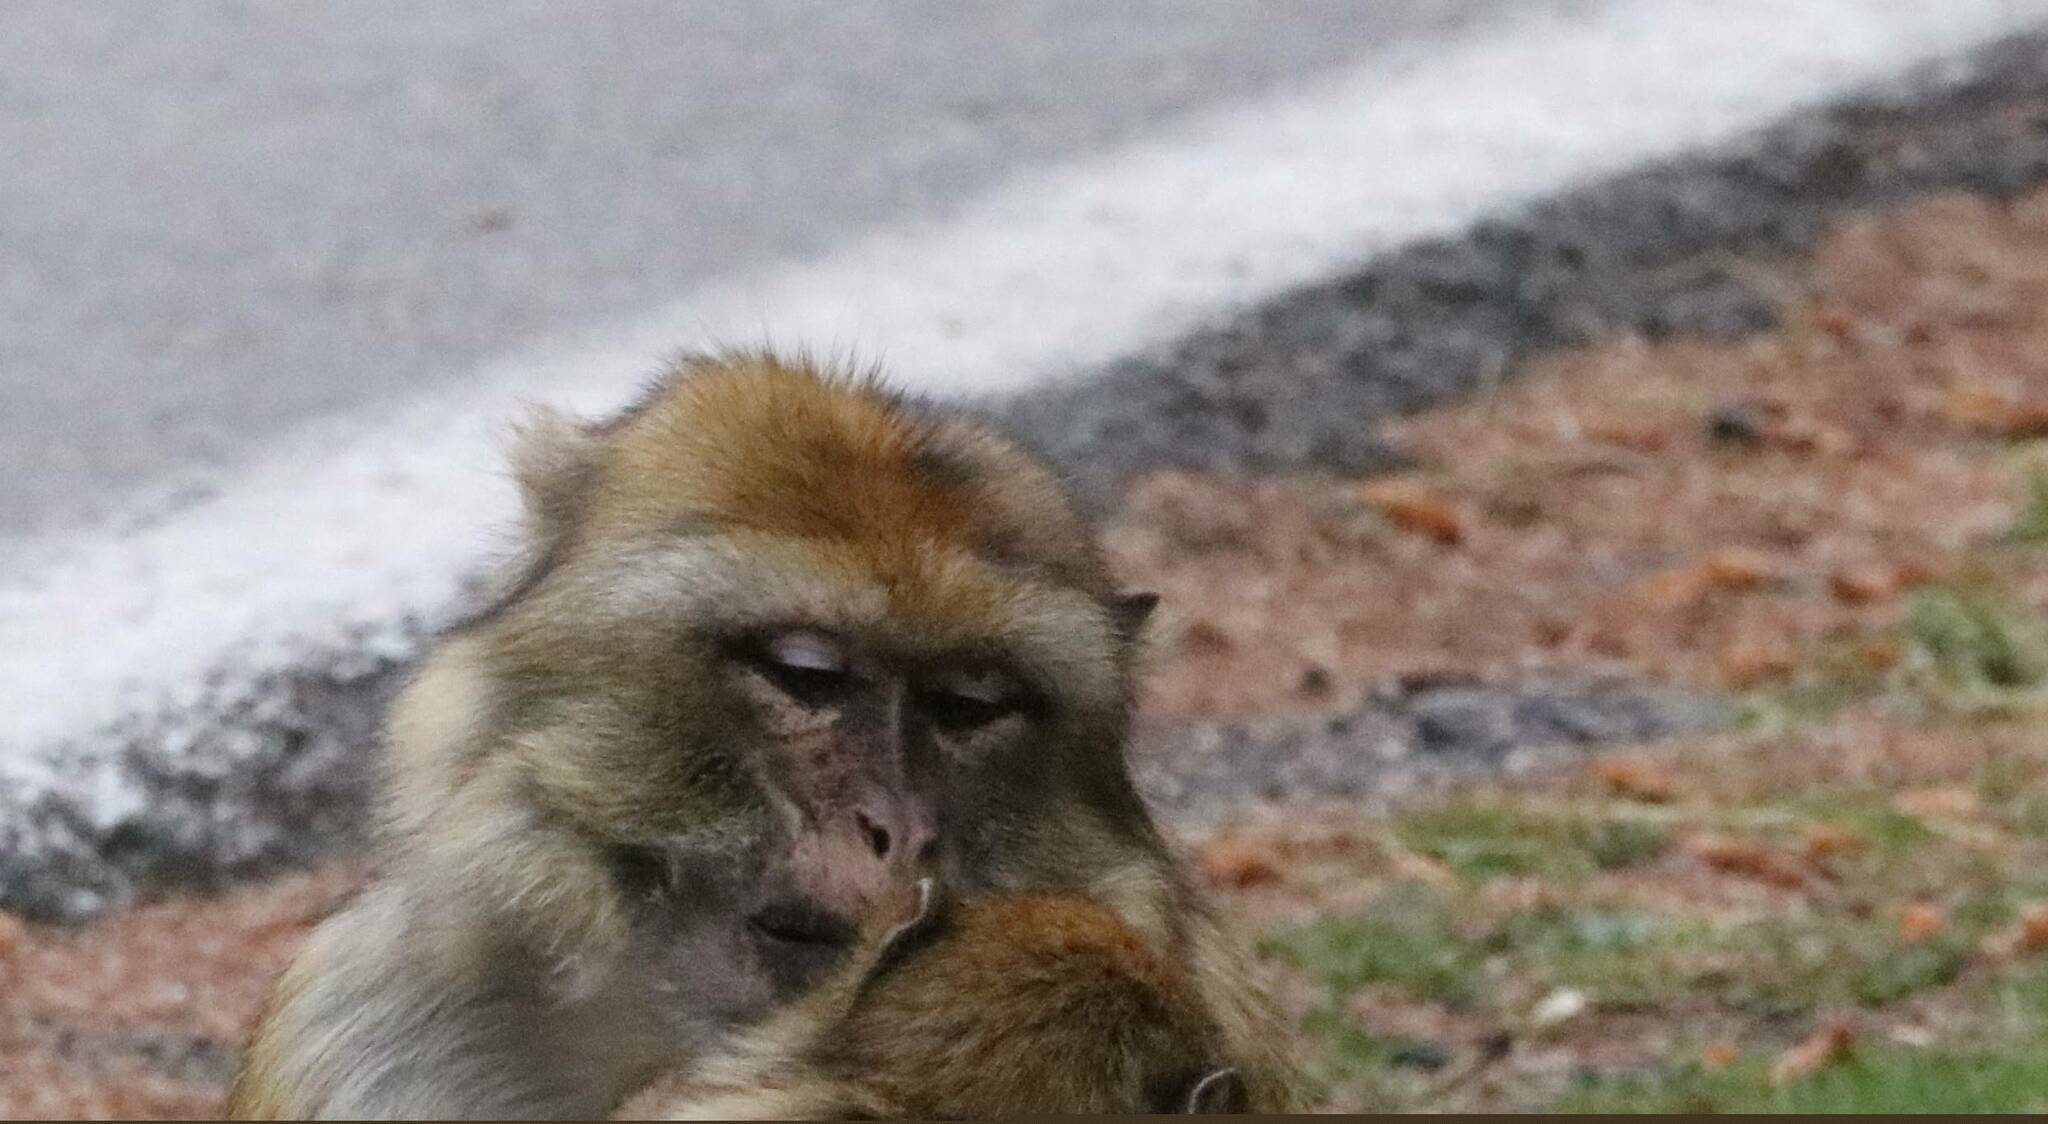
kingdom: Animalia
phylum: Chordata
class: Mammalia
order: Primates
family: Cercopithecidae
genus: Macaca
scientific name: Macaca sylvanus
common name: Barbary macaque
